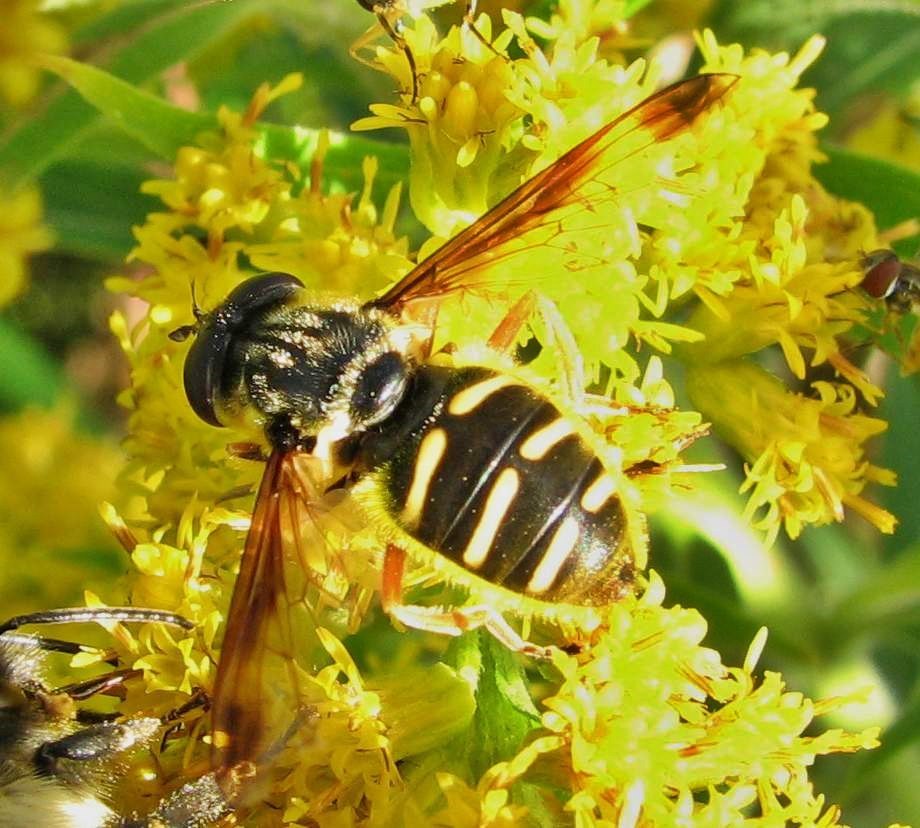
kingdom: Animalia
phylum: Arthropoda
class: Insecta
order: Diptera
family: Syrphidae
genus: Sericomyia
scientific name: Sericomyia chrysotoxoides
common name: Oblique-banded pond fly
